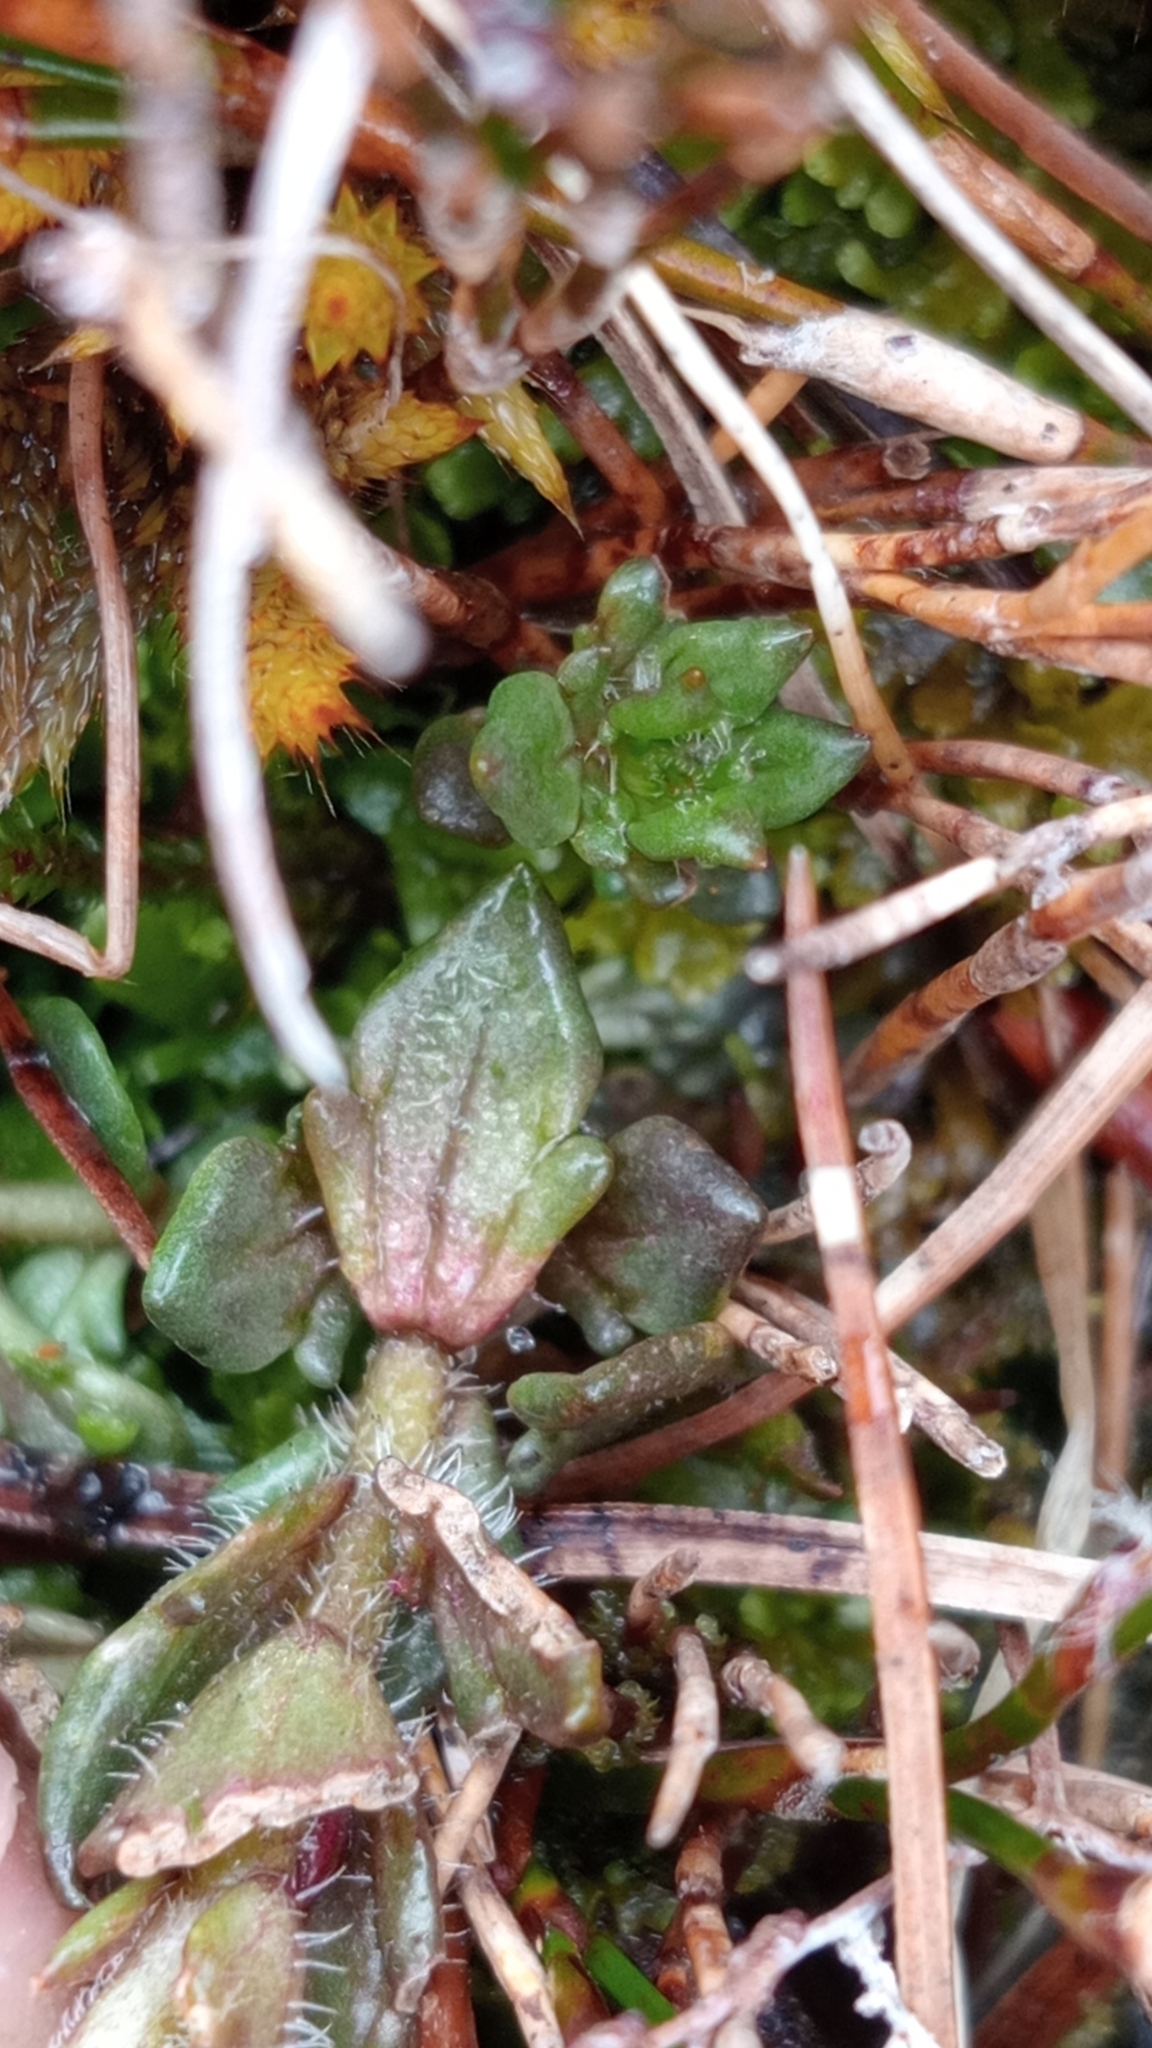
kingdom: Plantae
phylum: Tracheophyta
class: Magnoliopsida
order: Lamiales
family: Orobanchaceae
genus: Euphrasia
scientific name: Euphrasia townsonii
